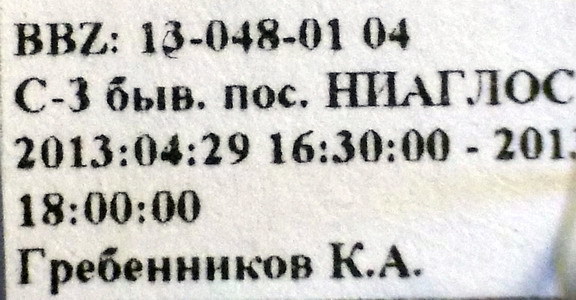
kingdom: Animalia
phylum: Arthropoda
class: Insecta
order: Hemiptera
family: Pentatomidae
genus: Aelia
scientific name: Aelia furcula
